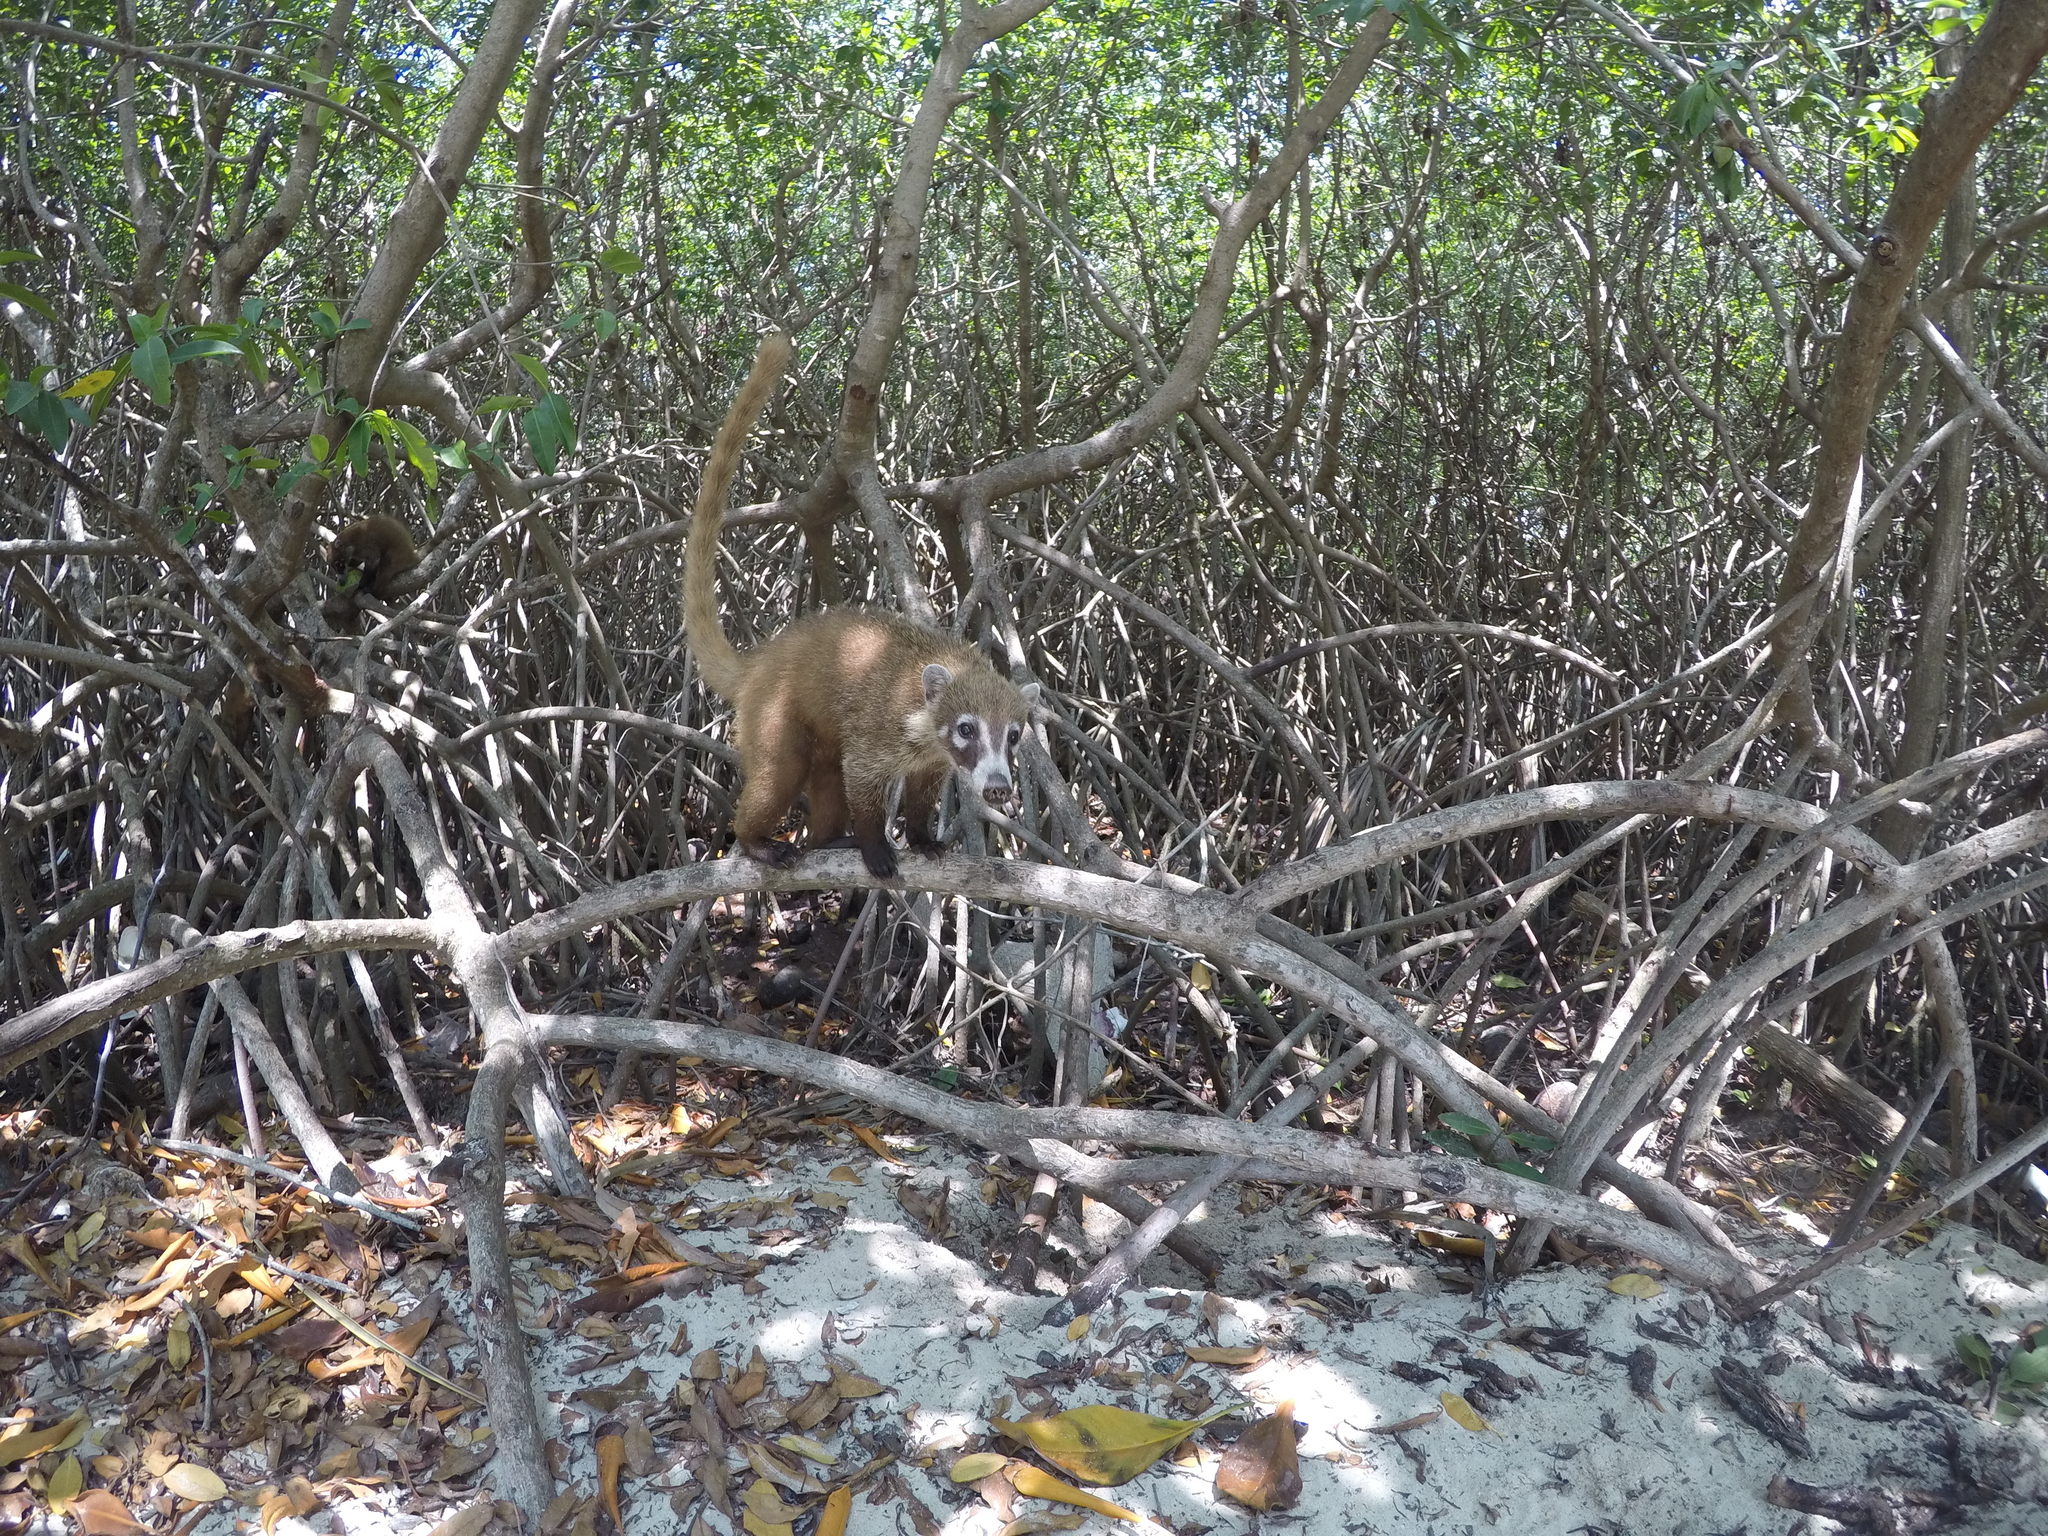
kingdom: Animalia
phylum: Chordata
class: Mammalia
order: Carnivora
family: Procyonidae
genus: Nasua
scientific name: Nasua narica
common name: White-nosed coati
